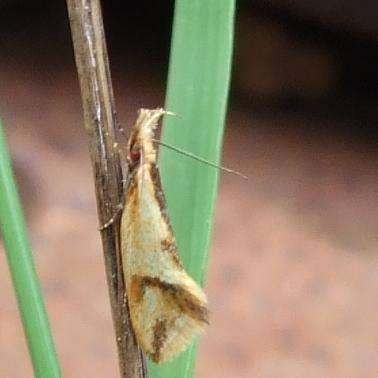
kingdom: Animalia
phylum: Arthropoda
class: Insecta
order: Lepidoptera
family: Oecophoridae
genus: Thema
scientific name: Thema chlorochyta
